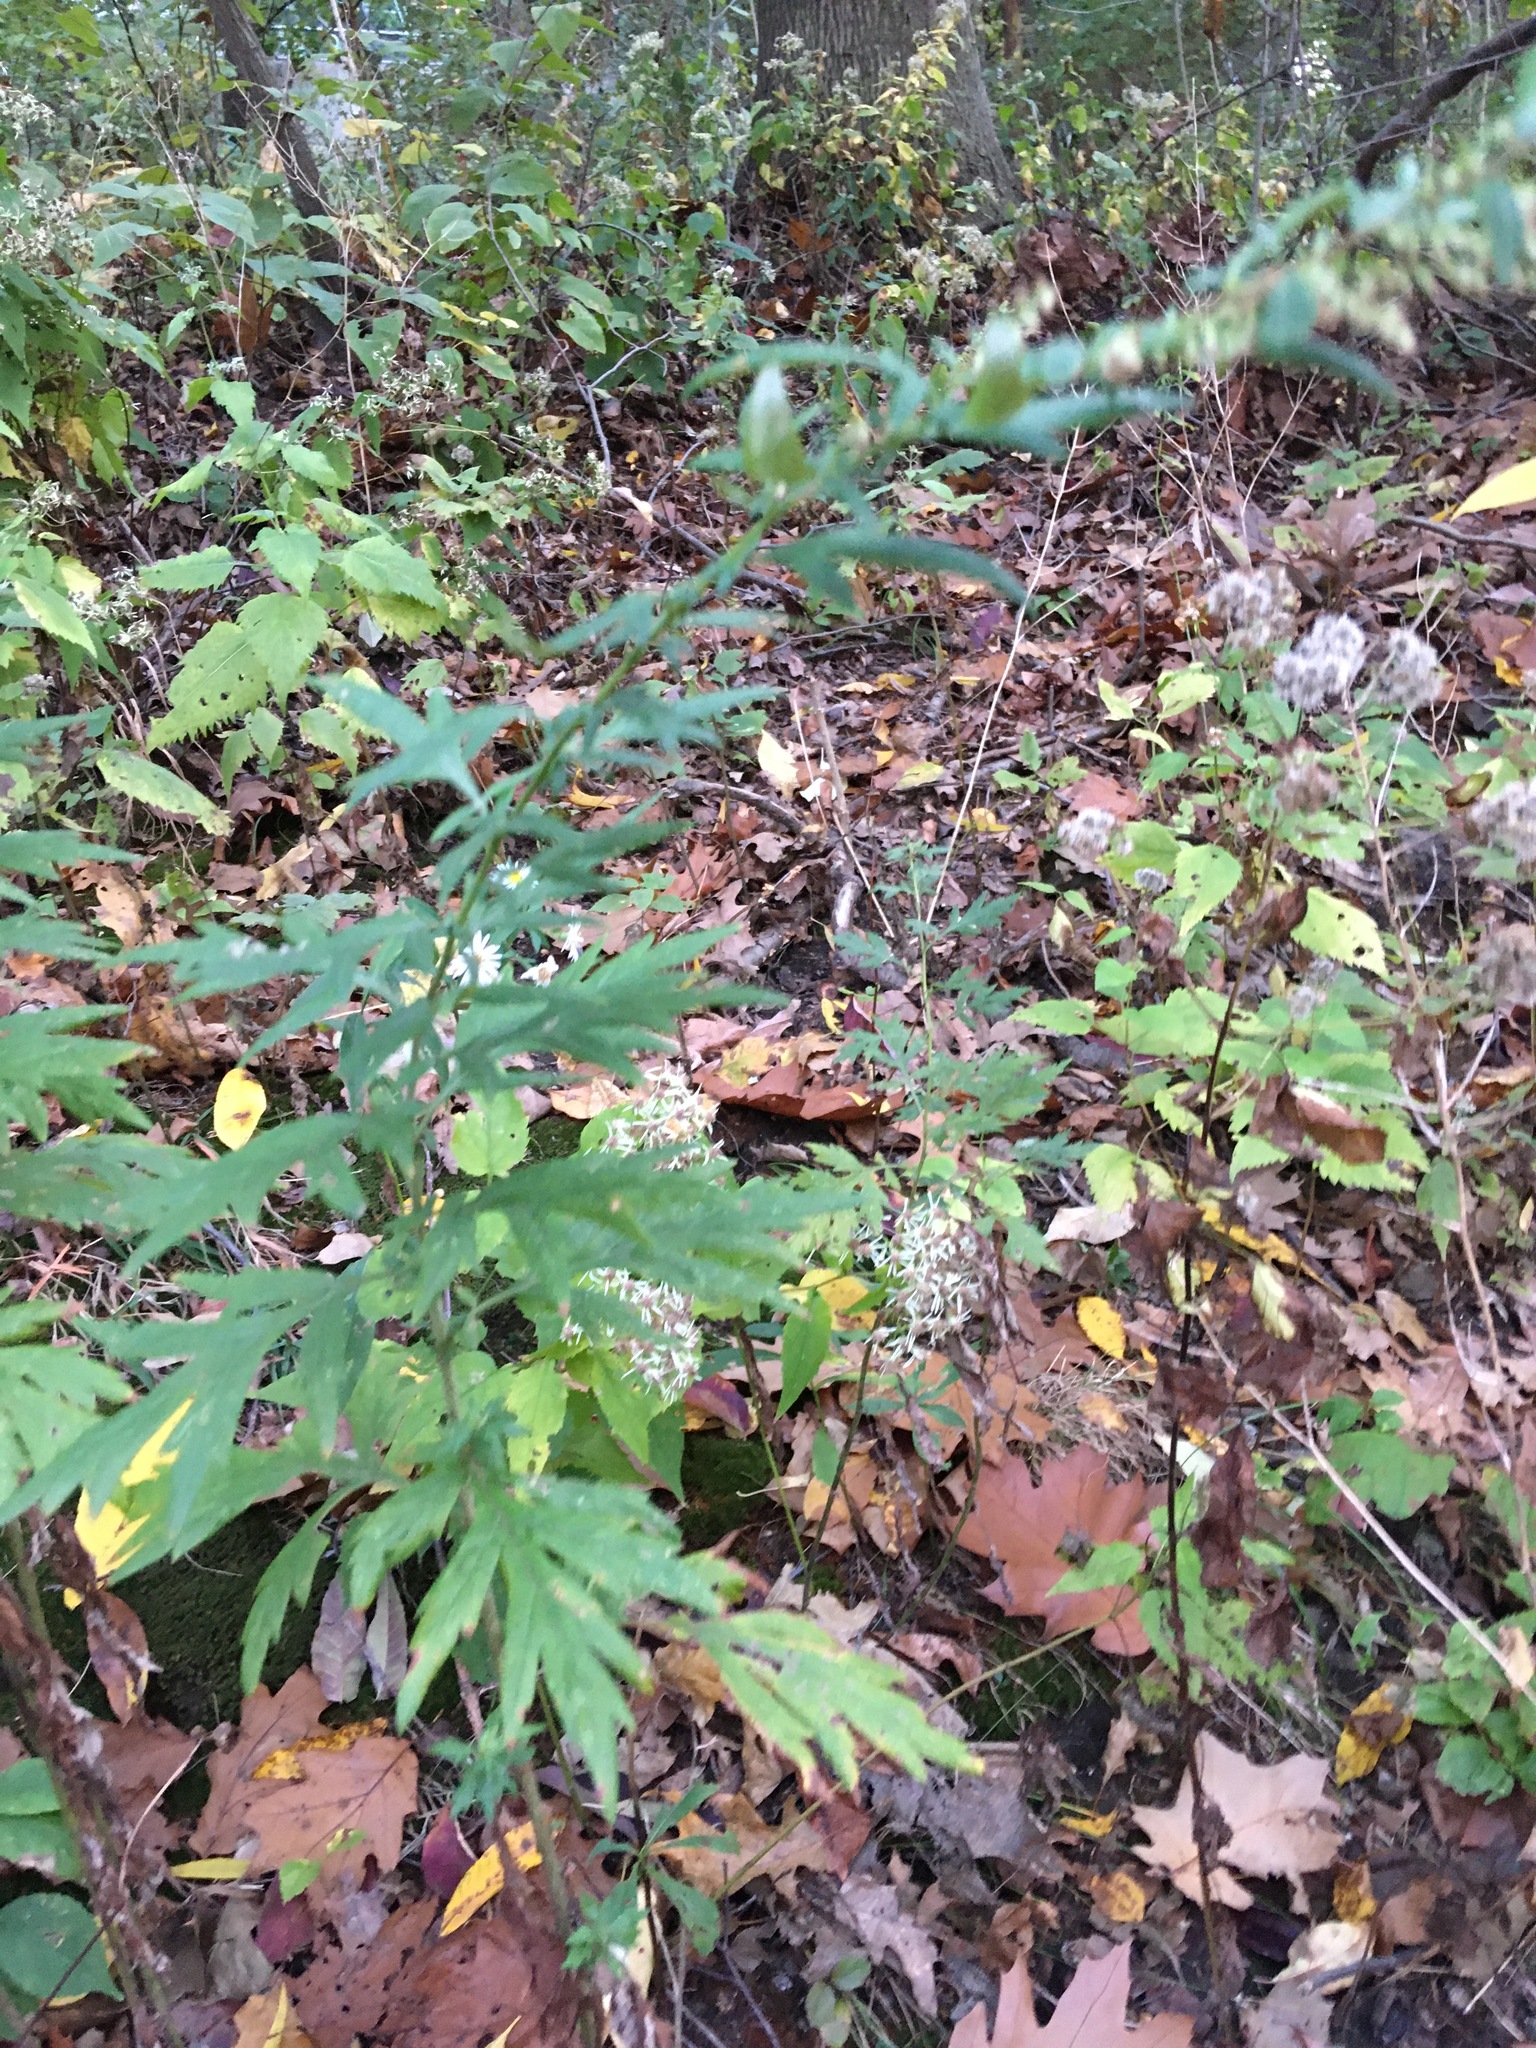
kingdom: Plantae
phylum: Tracheophyta
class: Magnoliopsida
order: Asterales
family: Asteraceae
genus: Artemisia
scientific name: Artemisia vulgaris
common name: Mugwort
